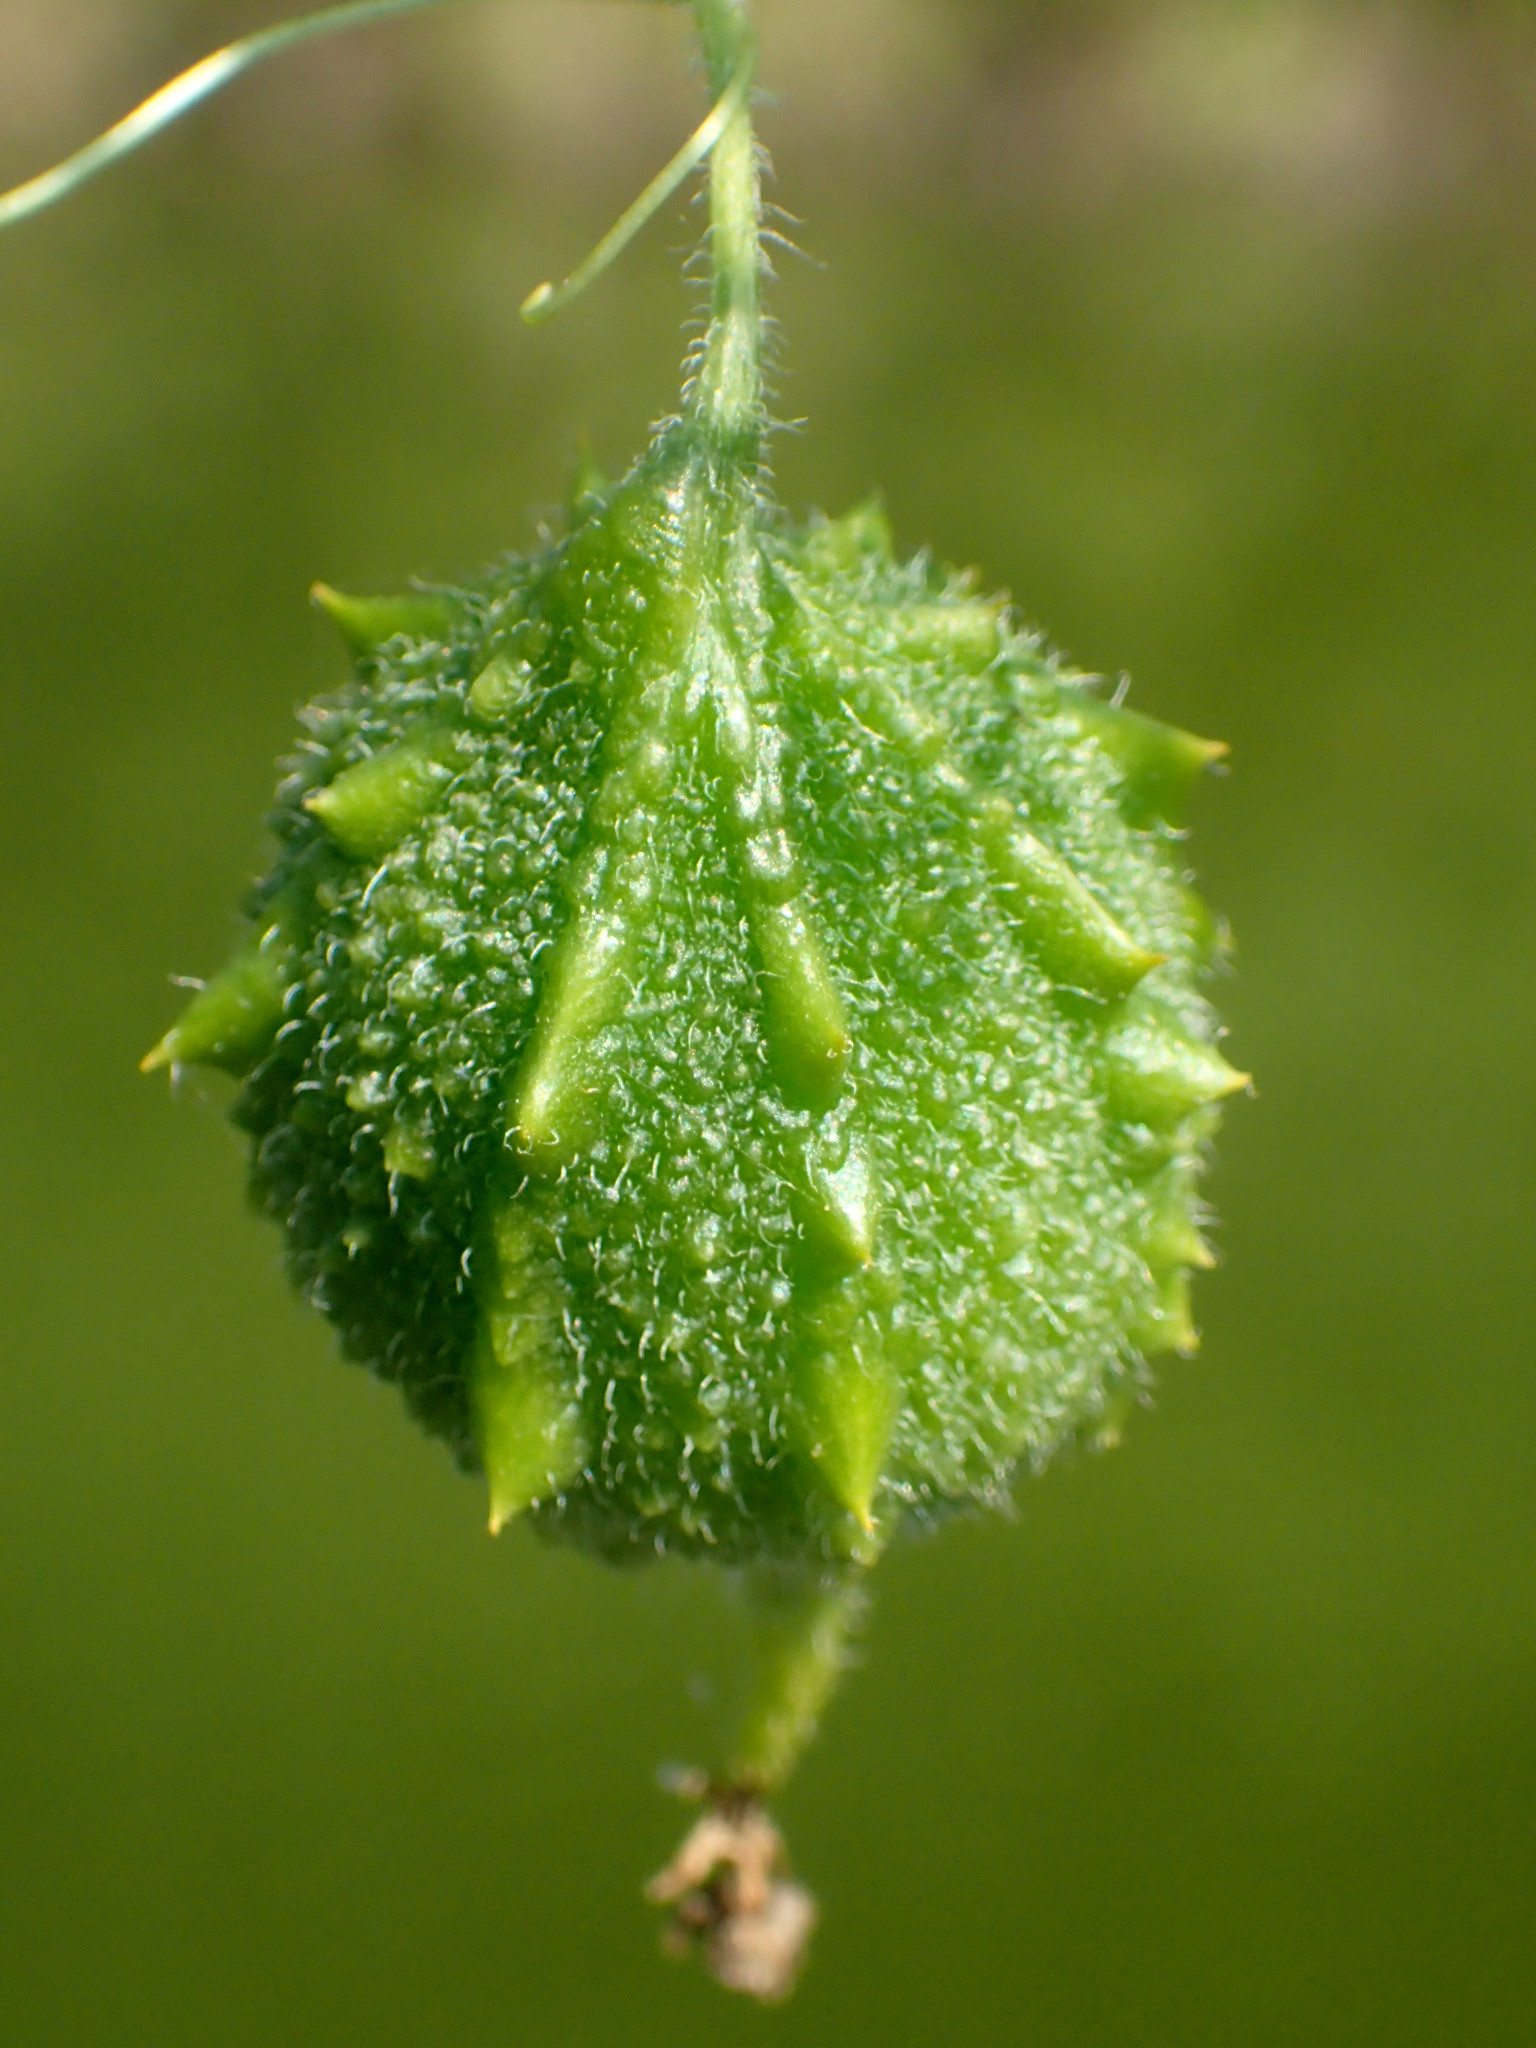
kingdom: Plantae
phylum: Tracheophyta
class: Magnoliopsida
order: Cucurbitales
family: Cucurbitaceae
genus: Momordica
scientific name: Momordica charantia
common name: Balsampear
